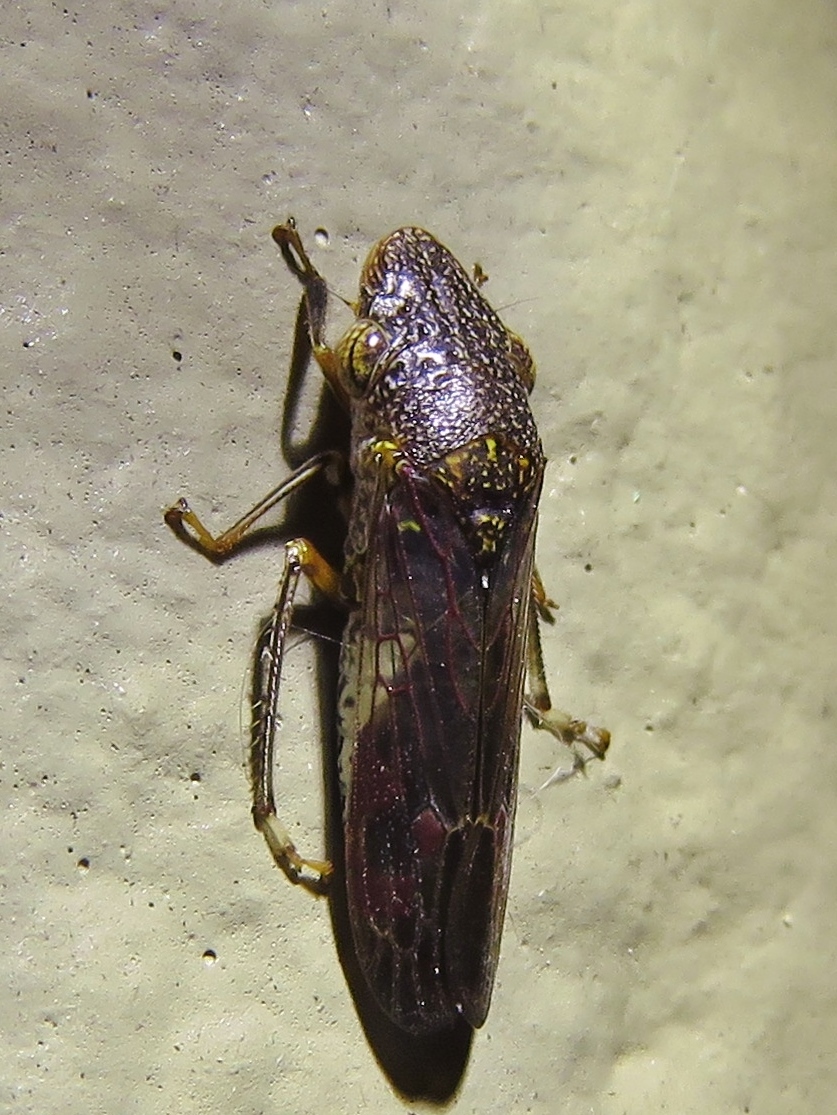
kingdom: Animalia
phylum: Arthropoda
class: Insecta
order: Hemiptera
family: Cicadellidae
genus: Homalodisca
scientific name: Homalodisca vitripennis
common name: Glassy-winged sharpshooter
